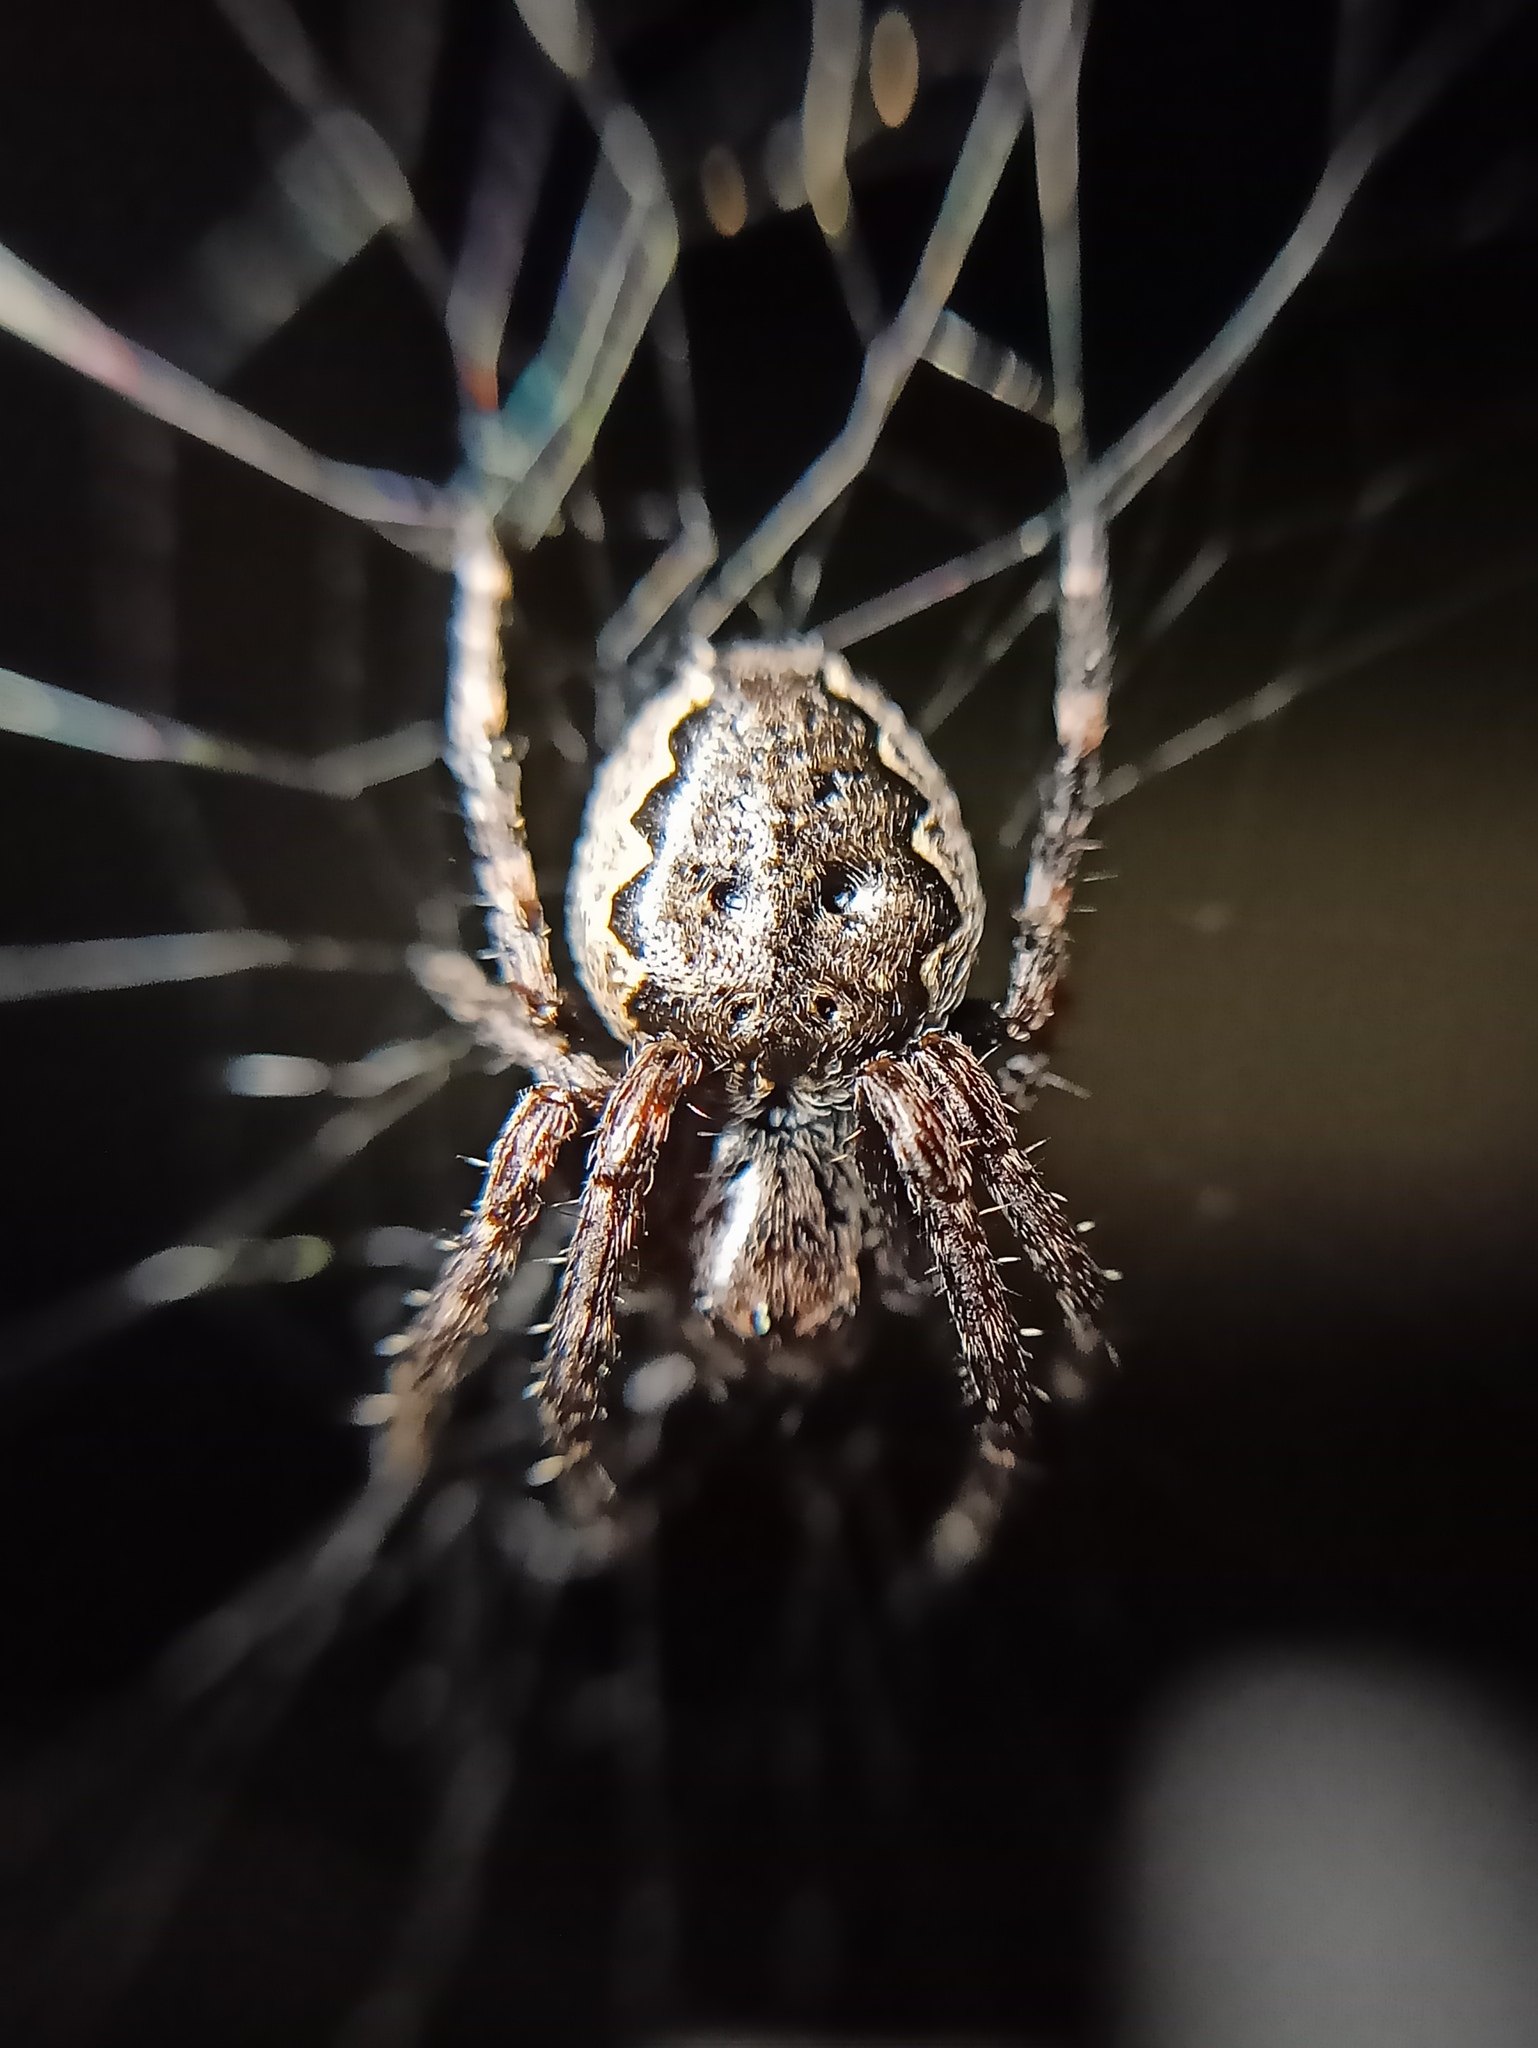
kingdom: Animalia
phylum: Arthropoda
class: Arachnida
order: Araneae
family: Araneidae
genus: Nuctenea
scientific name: Nuctenea umbratica
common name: Toad spider
